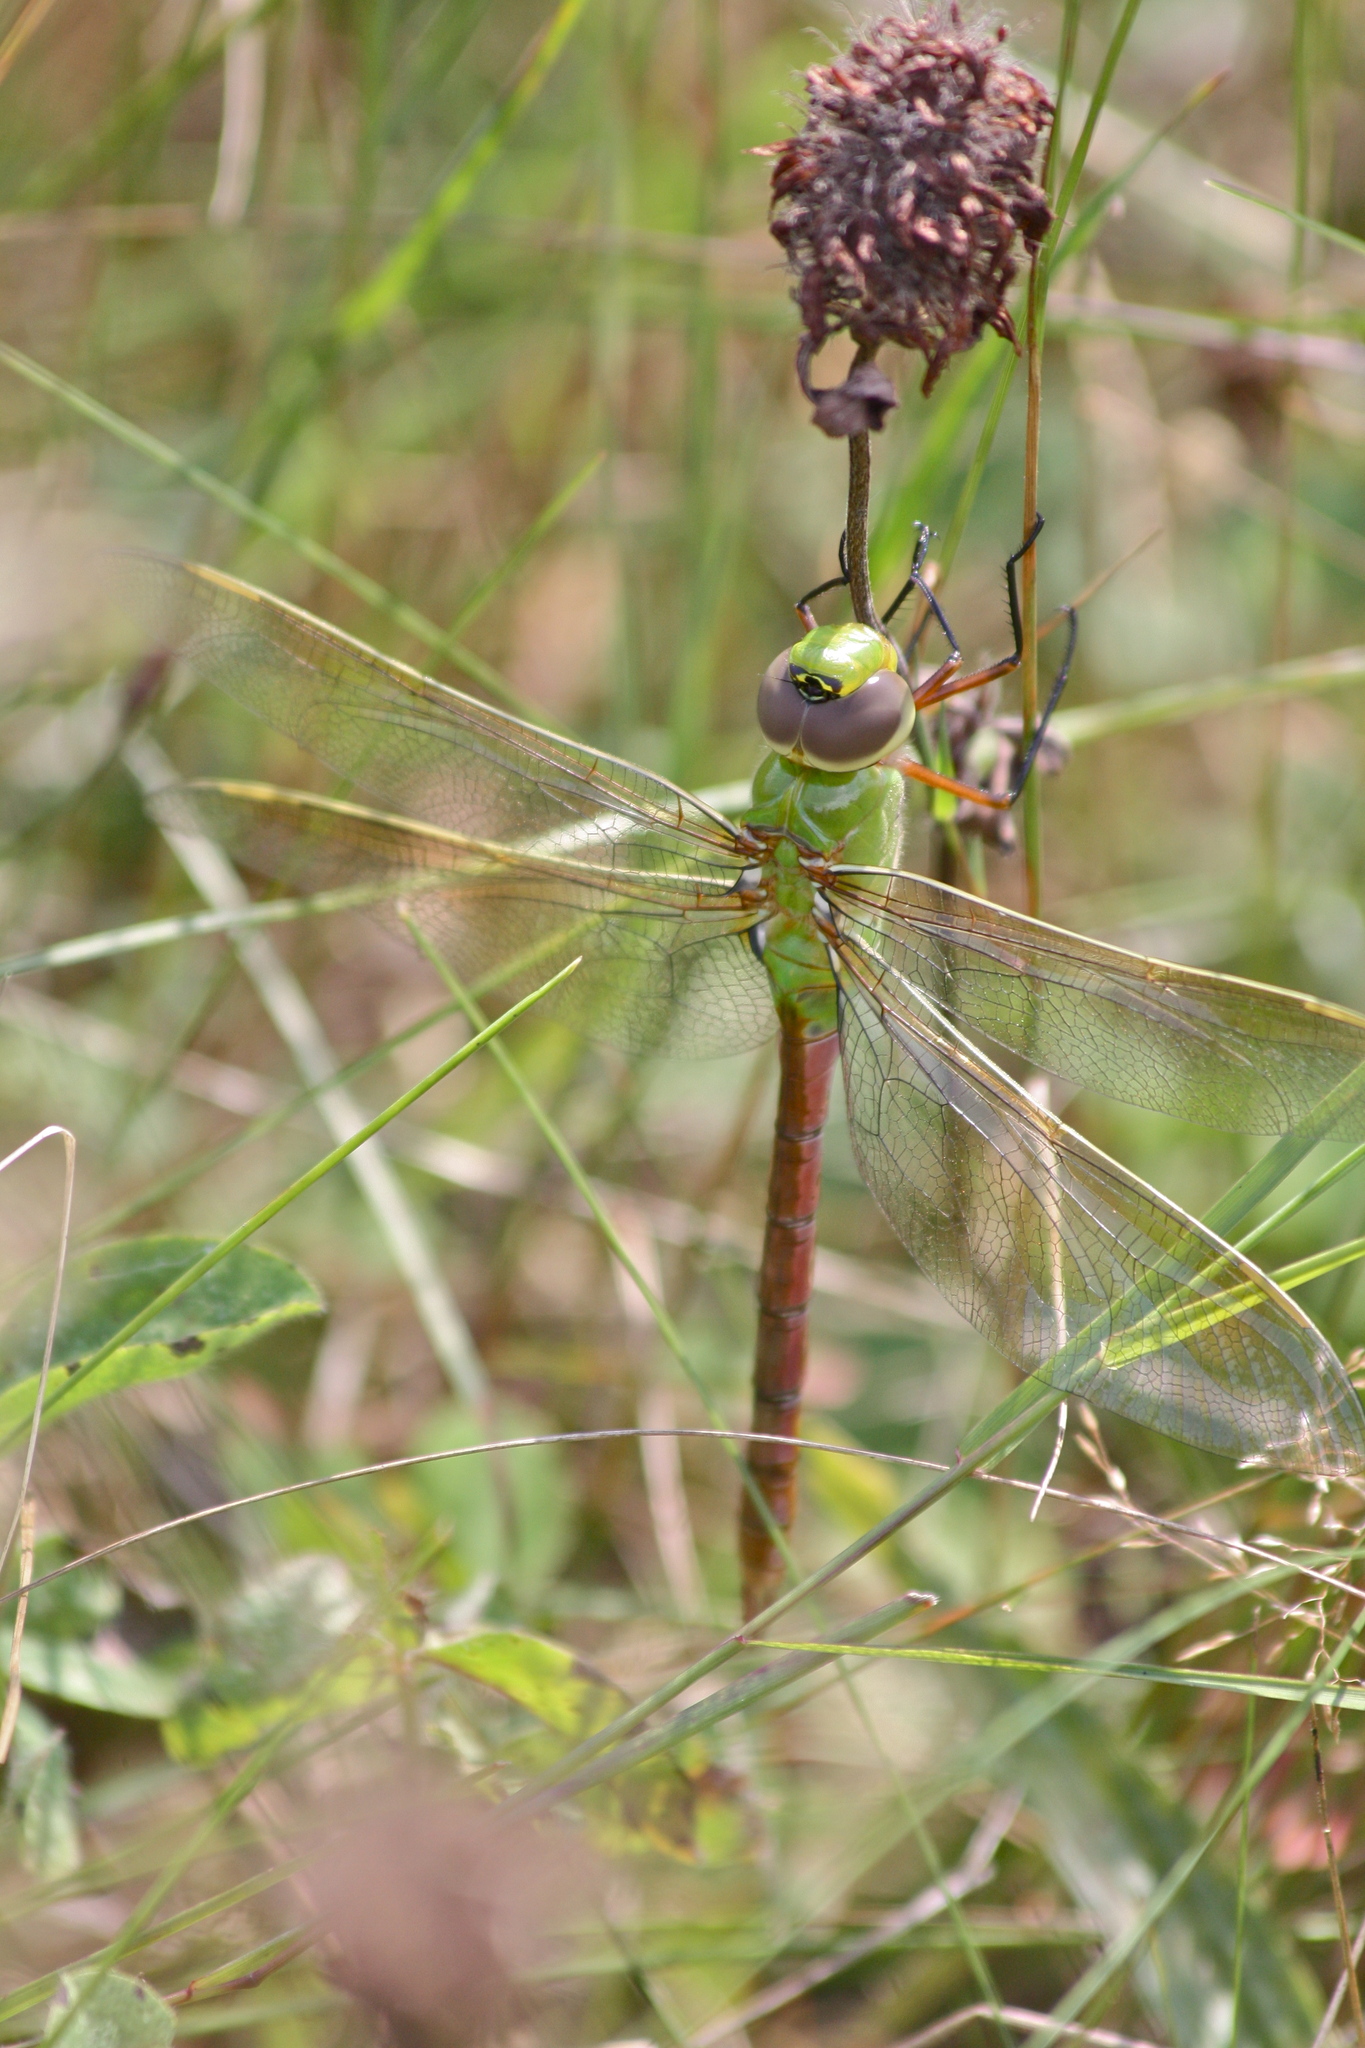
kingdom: Animalia
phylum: Arthropoda
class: Insecta
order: Odonata
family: Aeshnidae
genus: Anax
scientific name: Anax junius
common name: Common green darner
